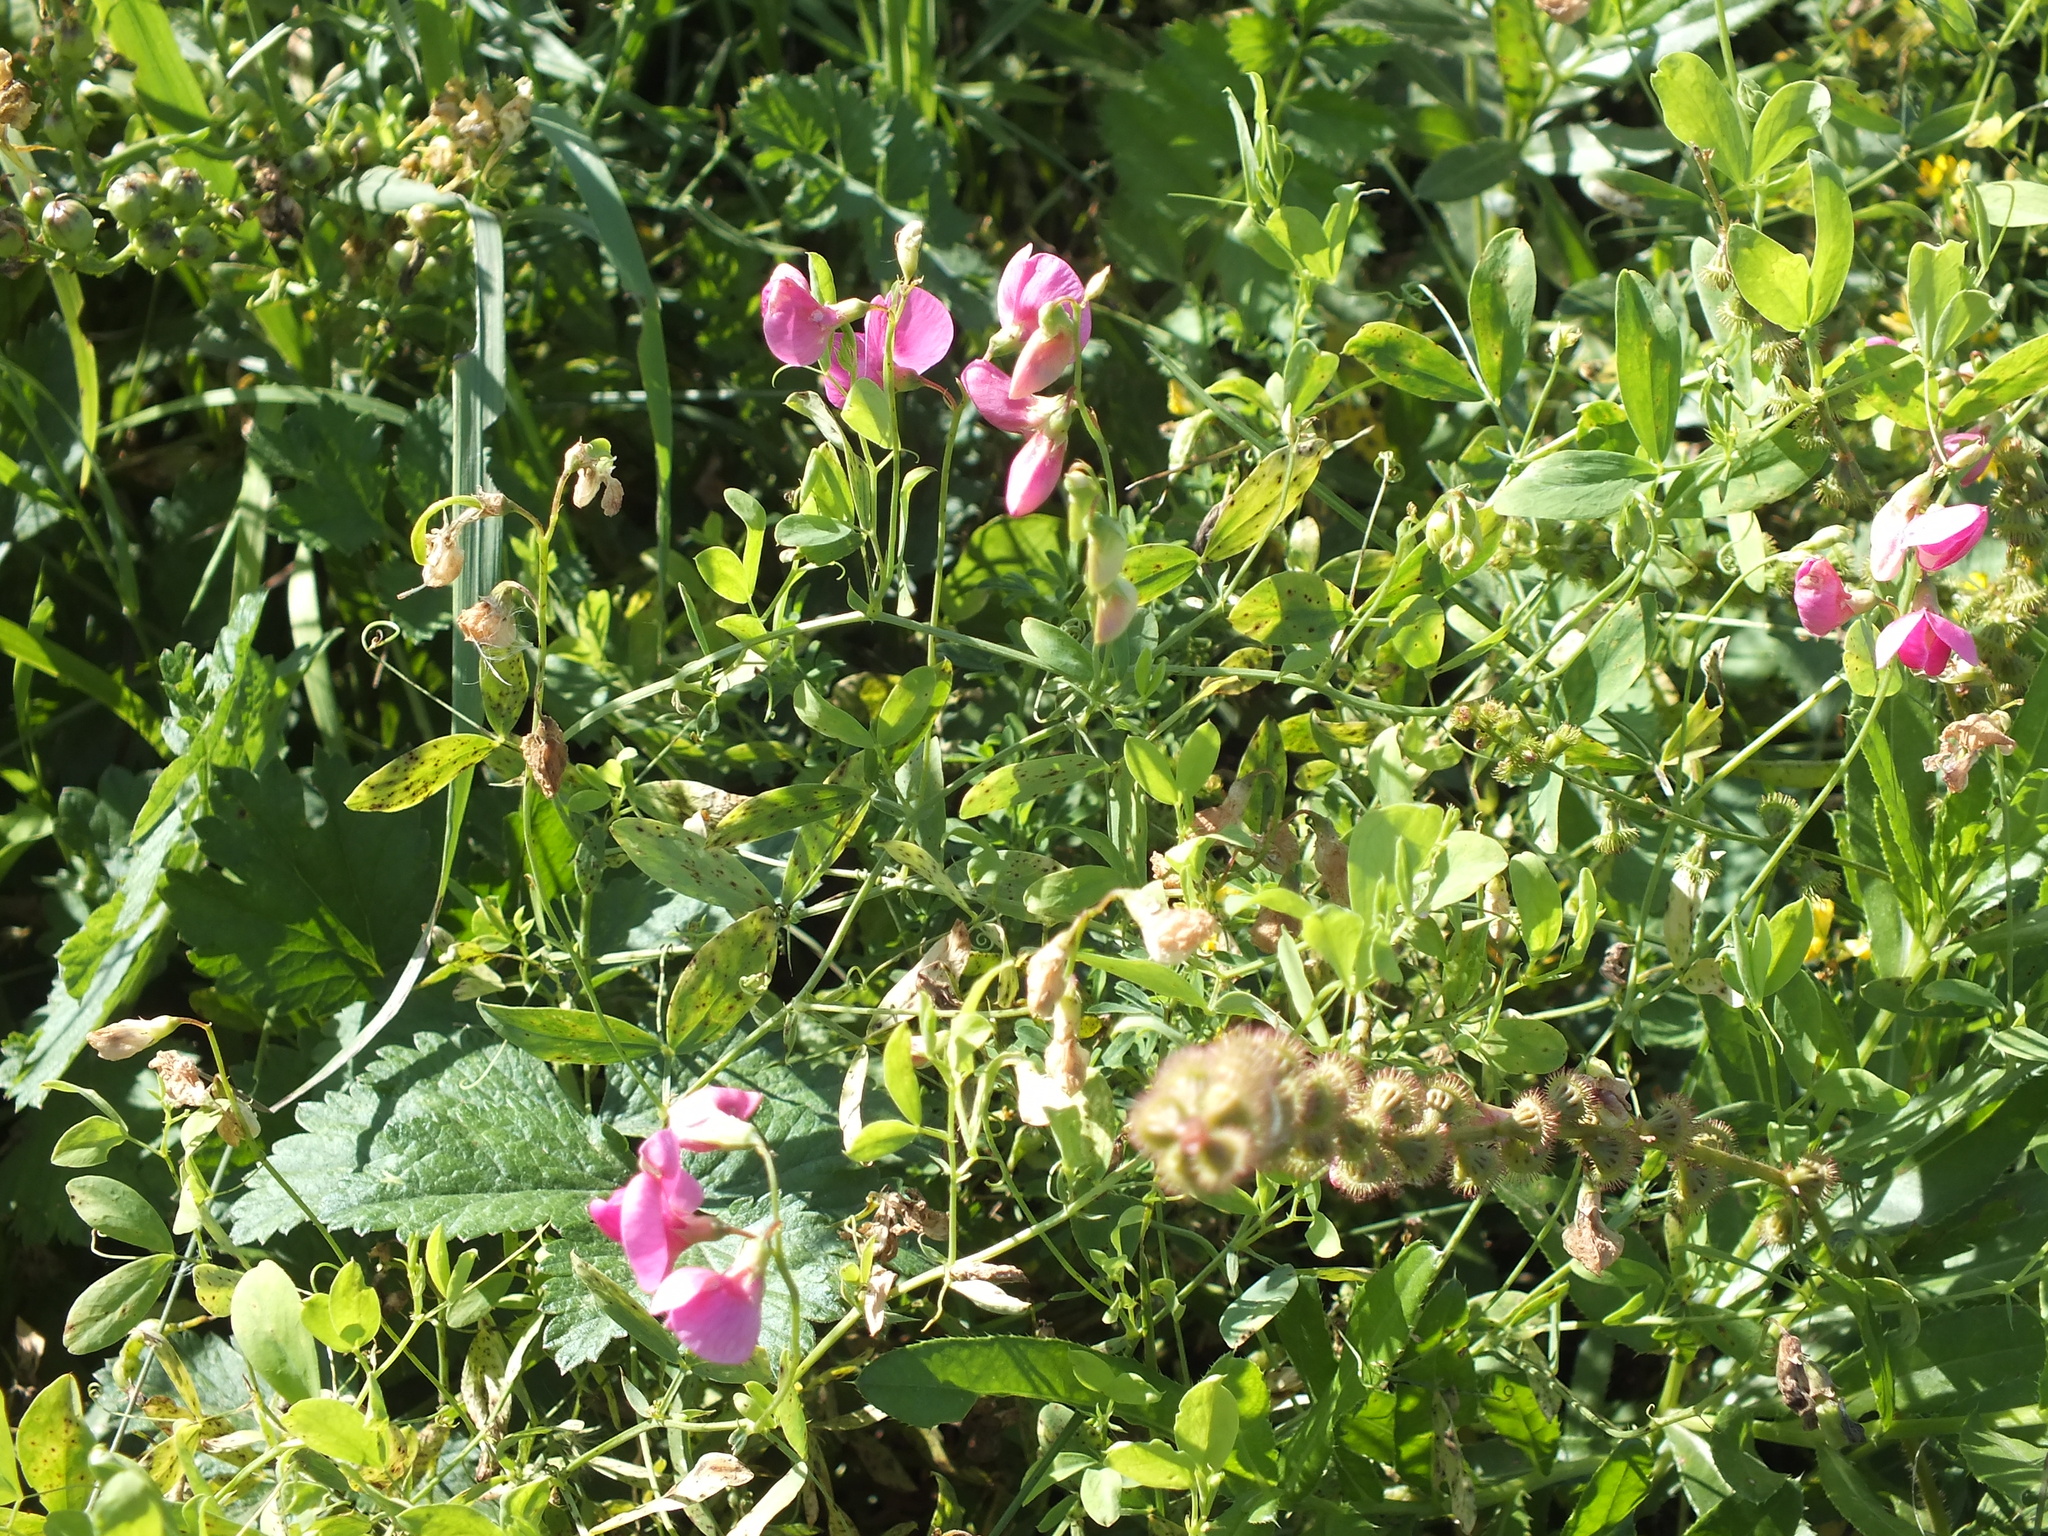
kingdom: Plantae
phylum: Tracheophyta
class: Magnoliopsida
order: Fabales
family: Fabaceae
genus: Lathyrus
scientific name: Lathyrus tuberosus
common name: Tuberous pea
